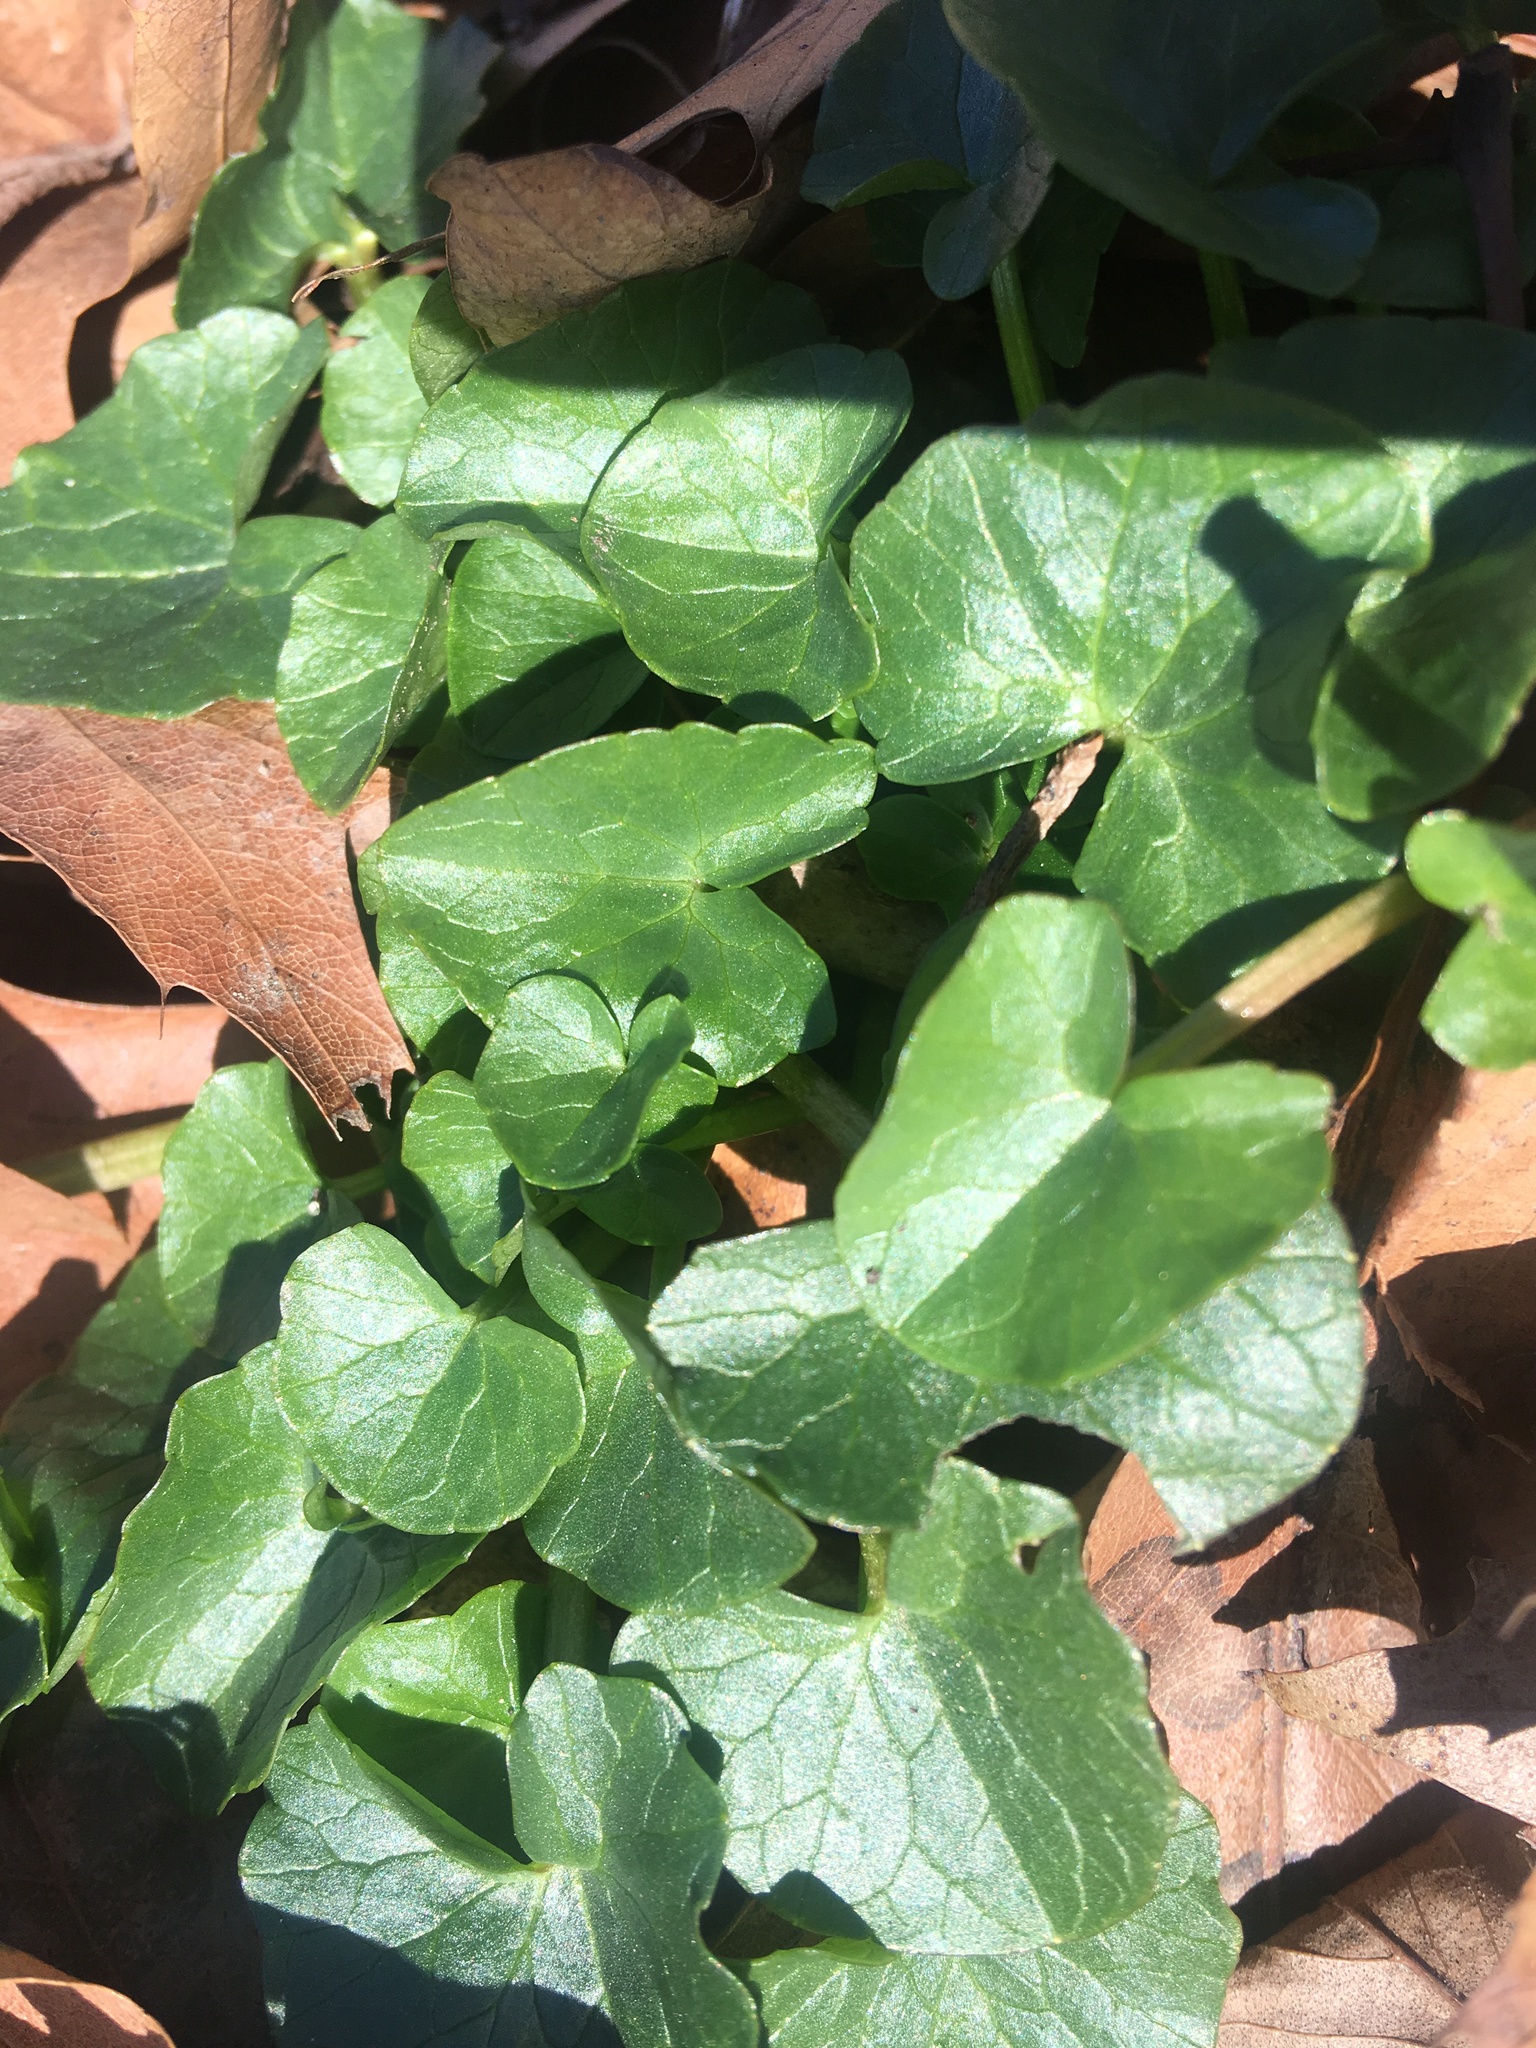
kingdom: Plantae
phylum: Tracheophyta
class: Magnoliopsida
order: Ranunculales
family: Ranunculaceae
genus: Ficaria
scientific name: Ficaria verna
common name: Lesser celandine
